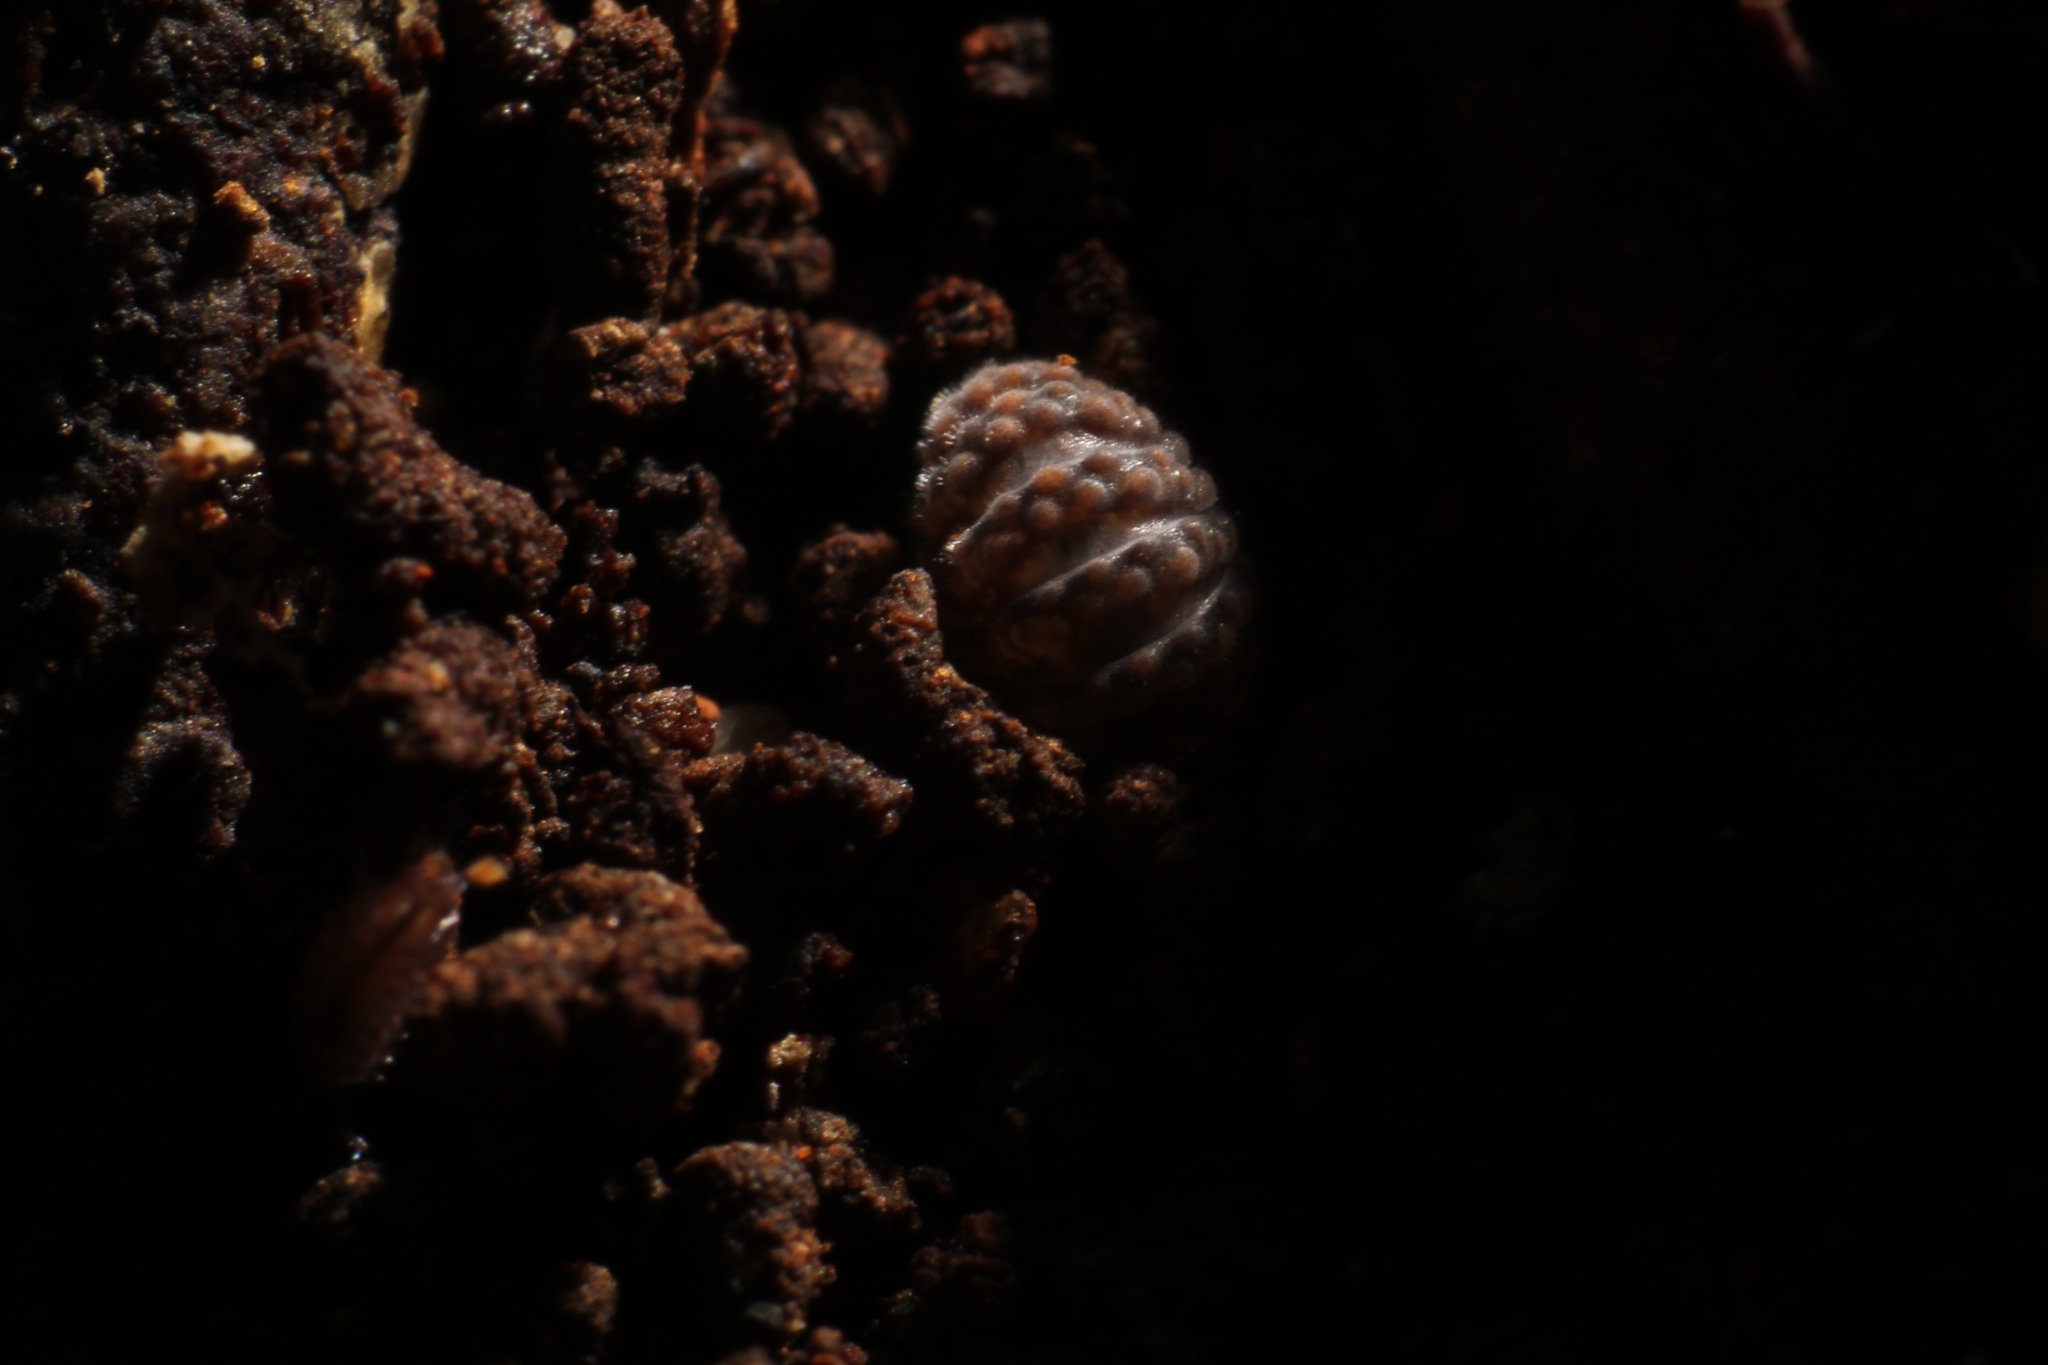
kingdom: Animalia
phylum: Arthropoda
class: Malacostraca
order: Isopoda
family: Armadillidae
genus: Pseudodiploexochus
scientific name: Pseudodiploexochus australiensis
